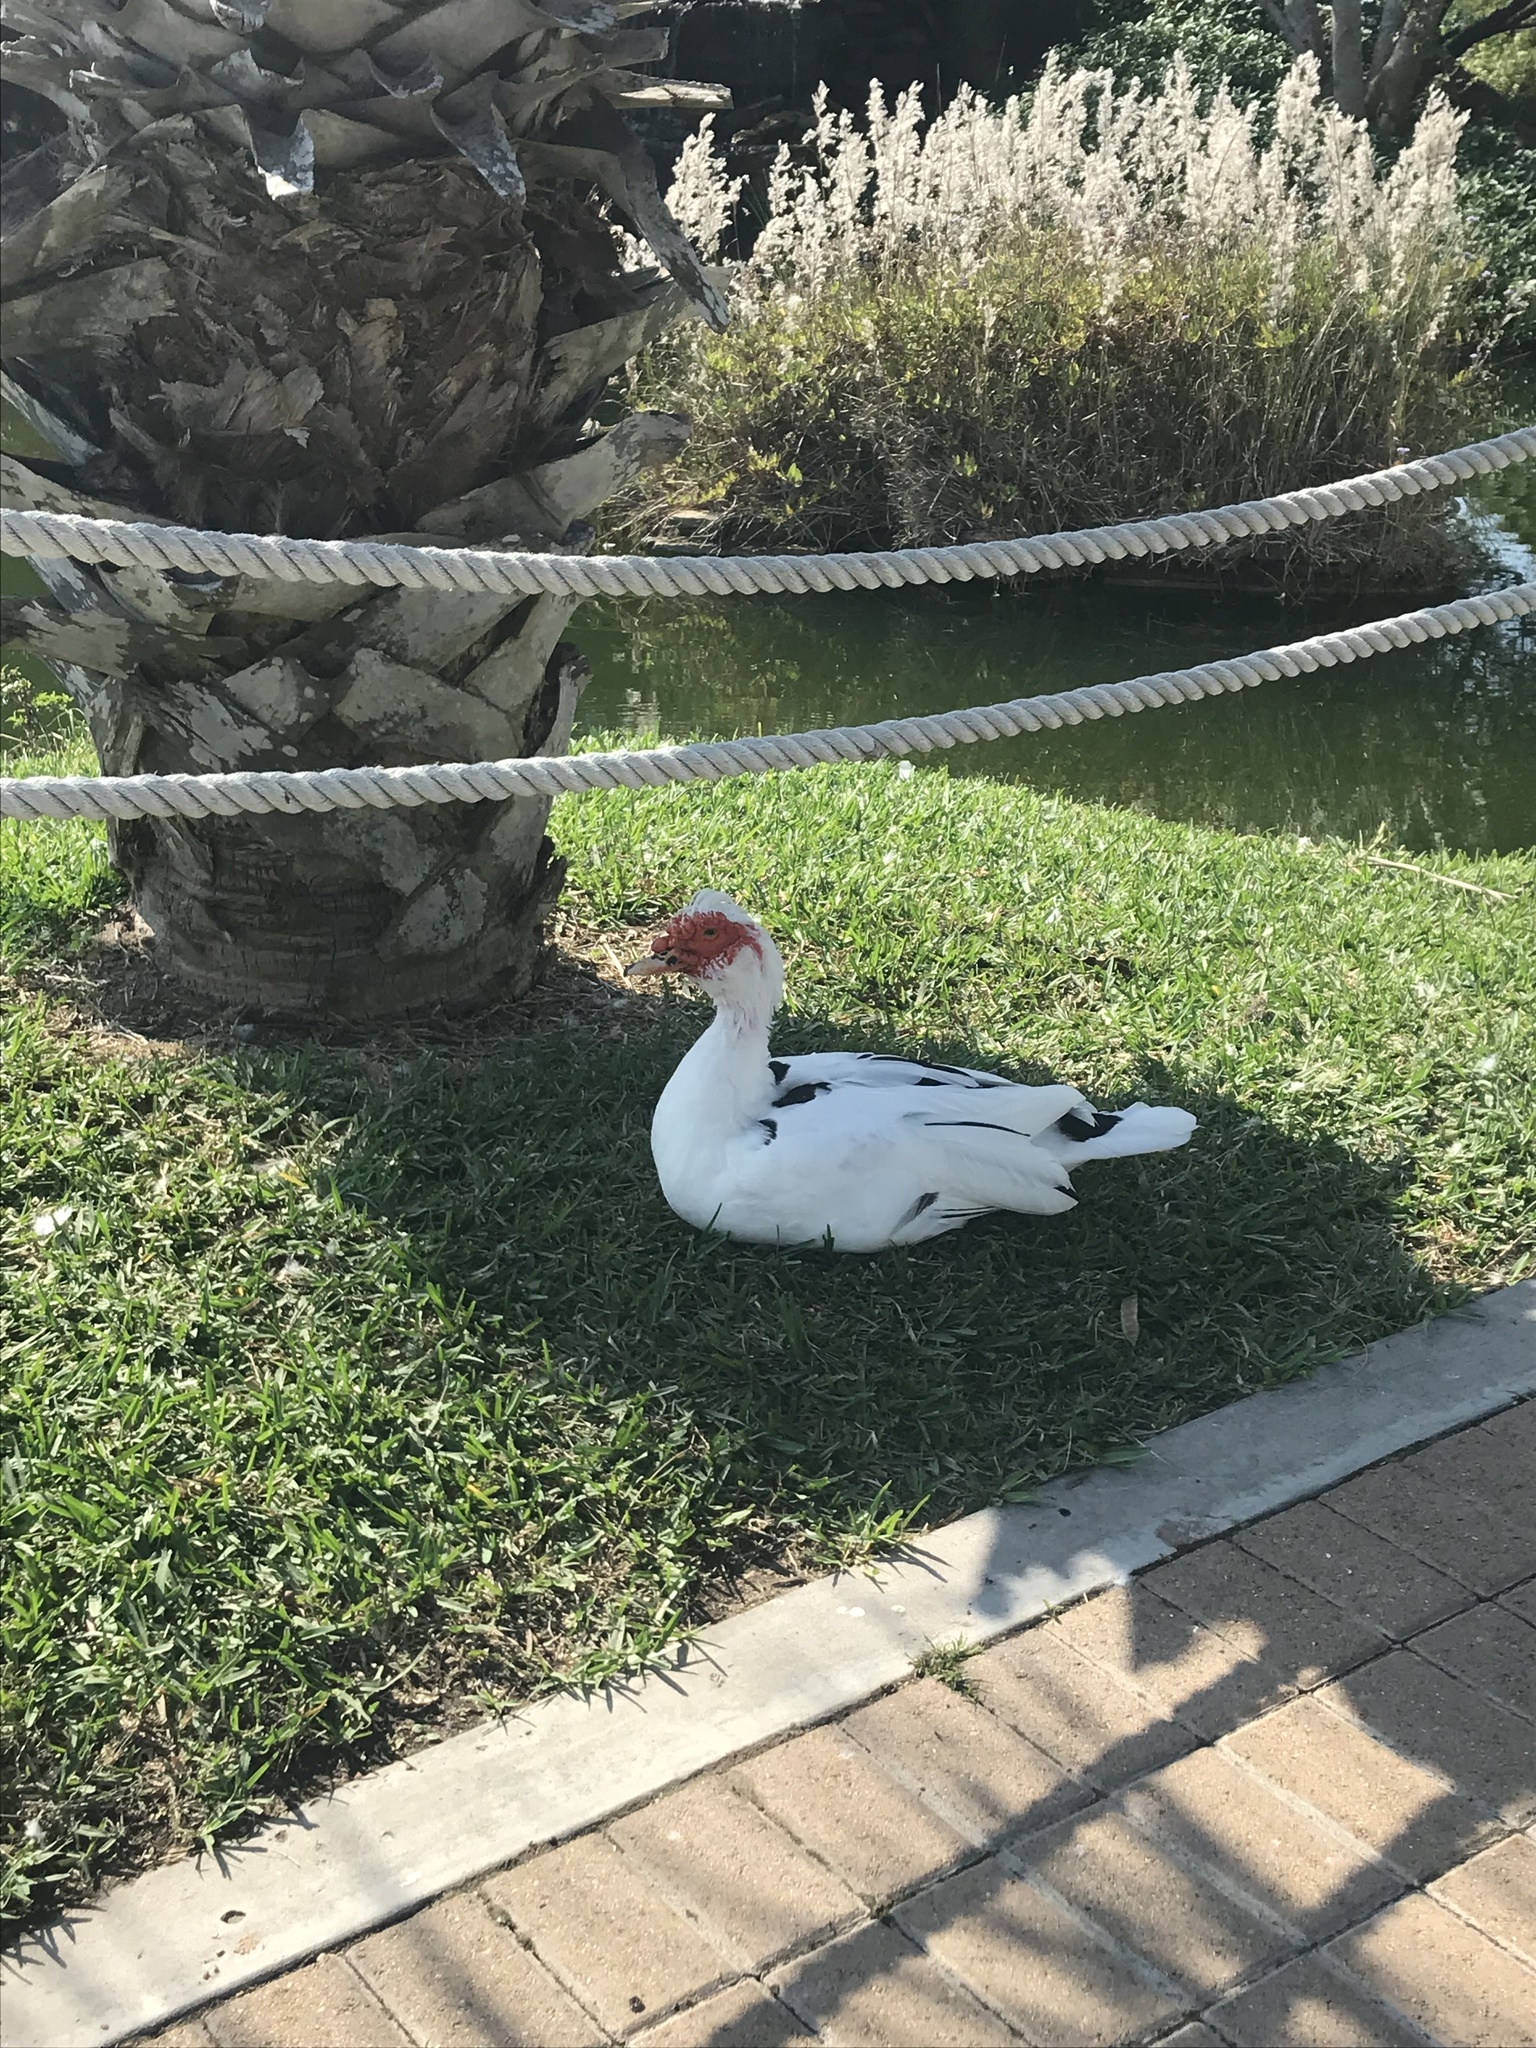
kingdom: Animalia
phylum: Chordata
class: Aves
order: Anseriformes
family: Anatidae
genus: Cairina
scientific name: Cairina moschata
